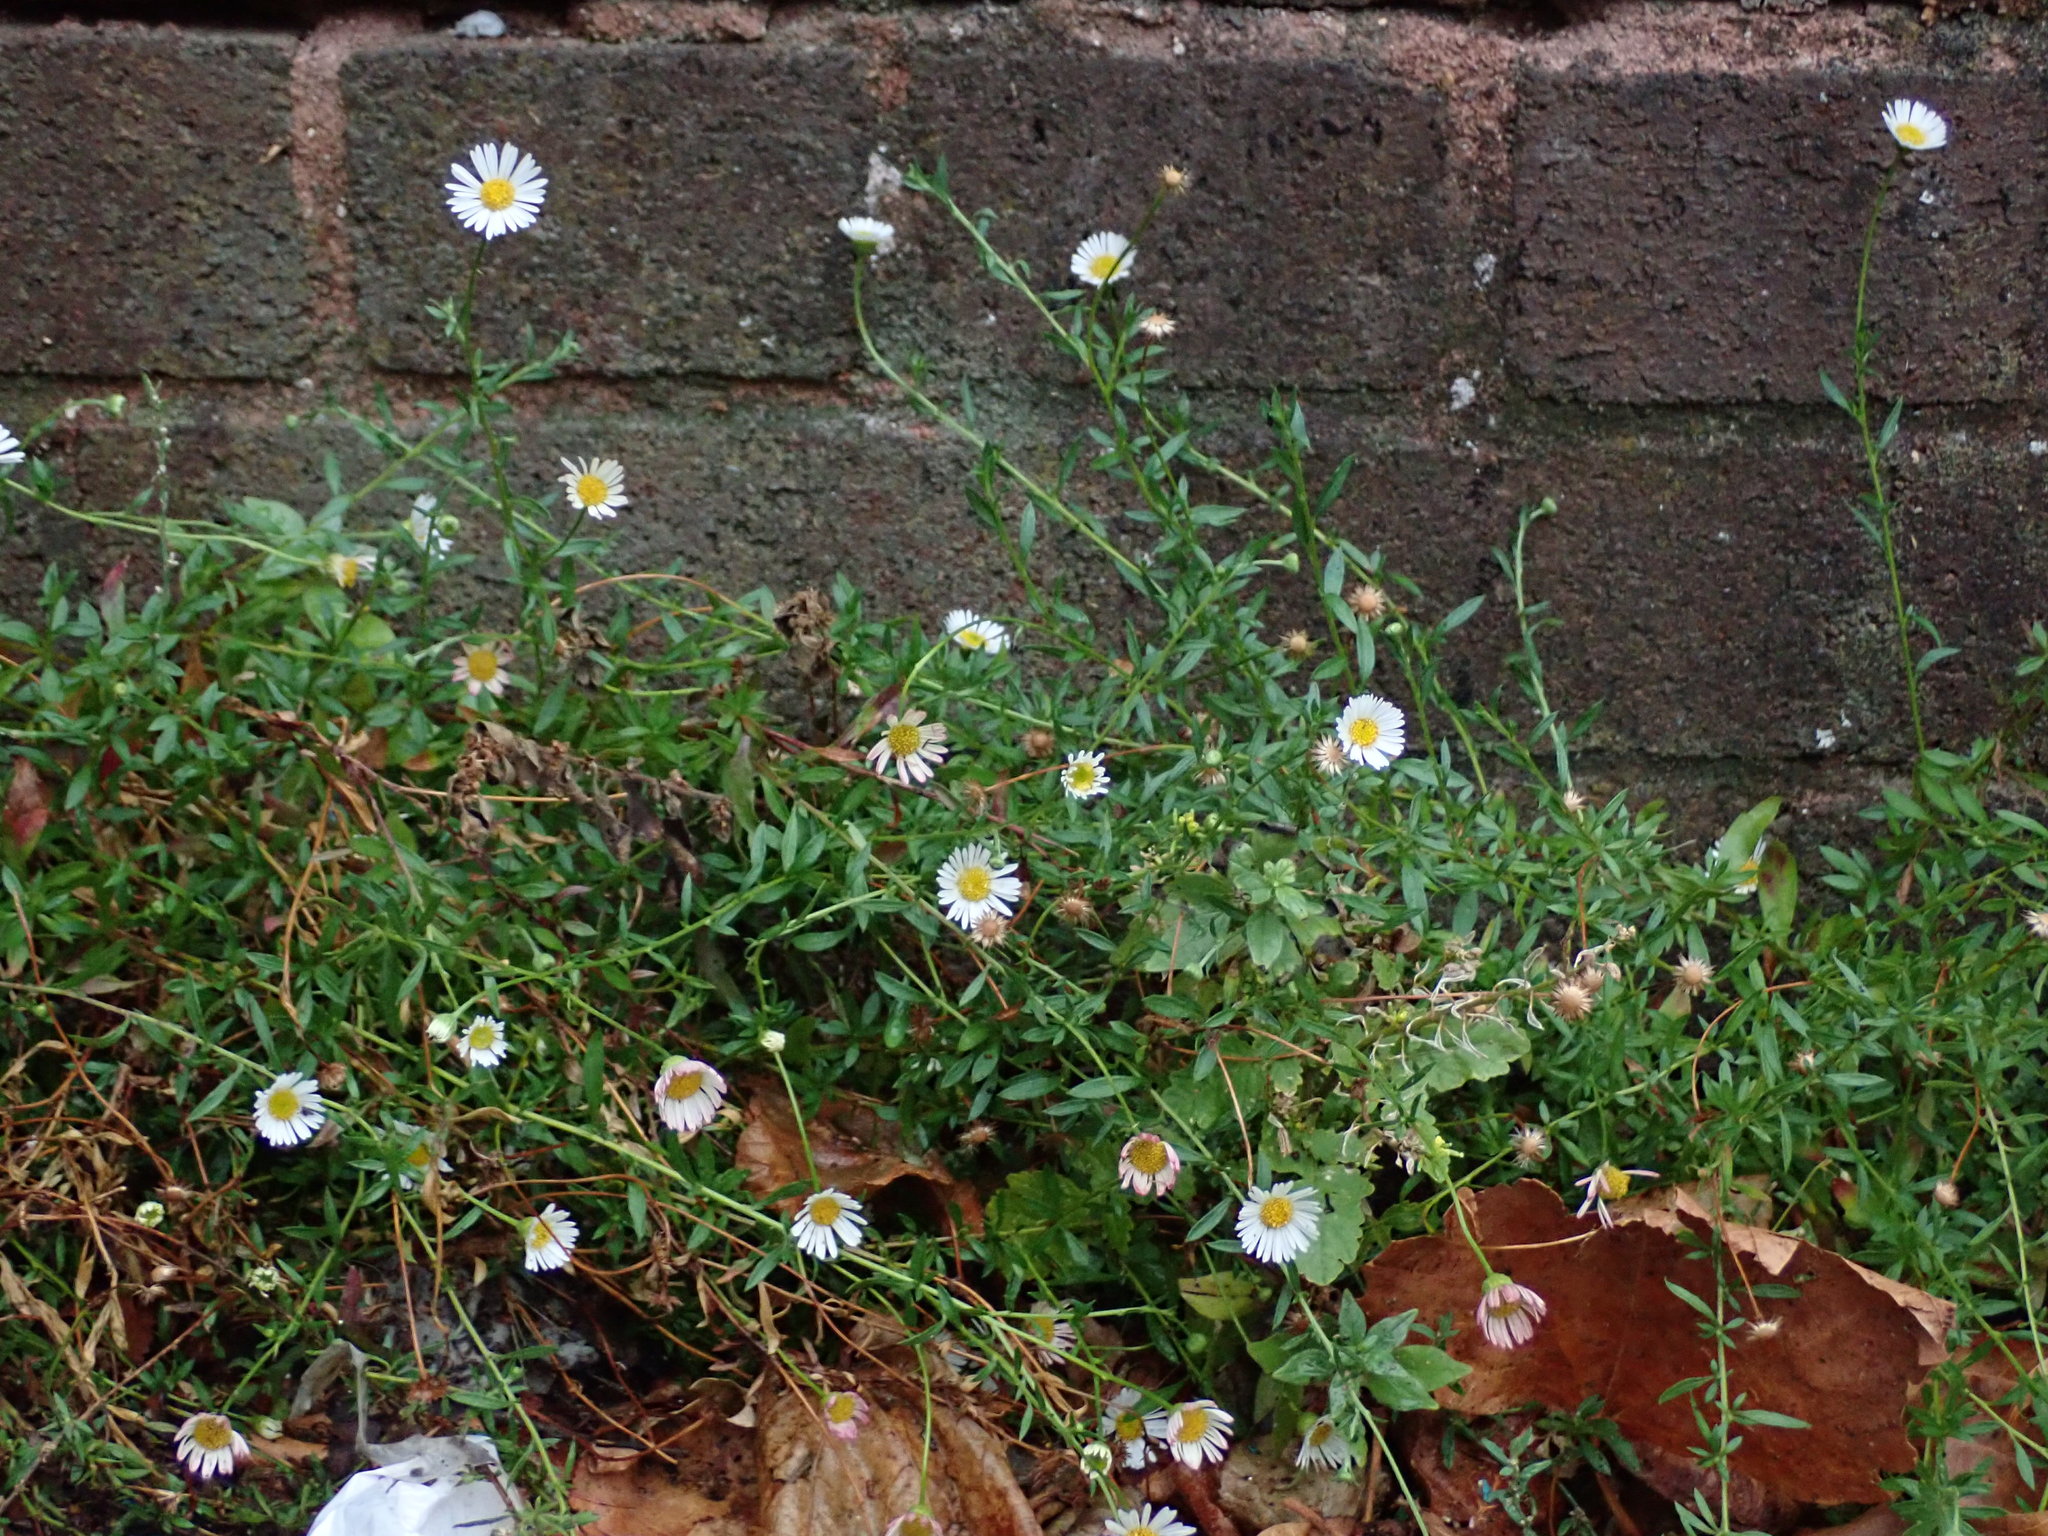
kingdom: Plantae
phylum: Tracheophyta
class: Magnoliopsida
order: Asterales
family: Asteraceae
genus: Erigeron
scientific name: Erigeron karvinskianus
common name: Mexican fleabane
